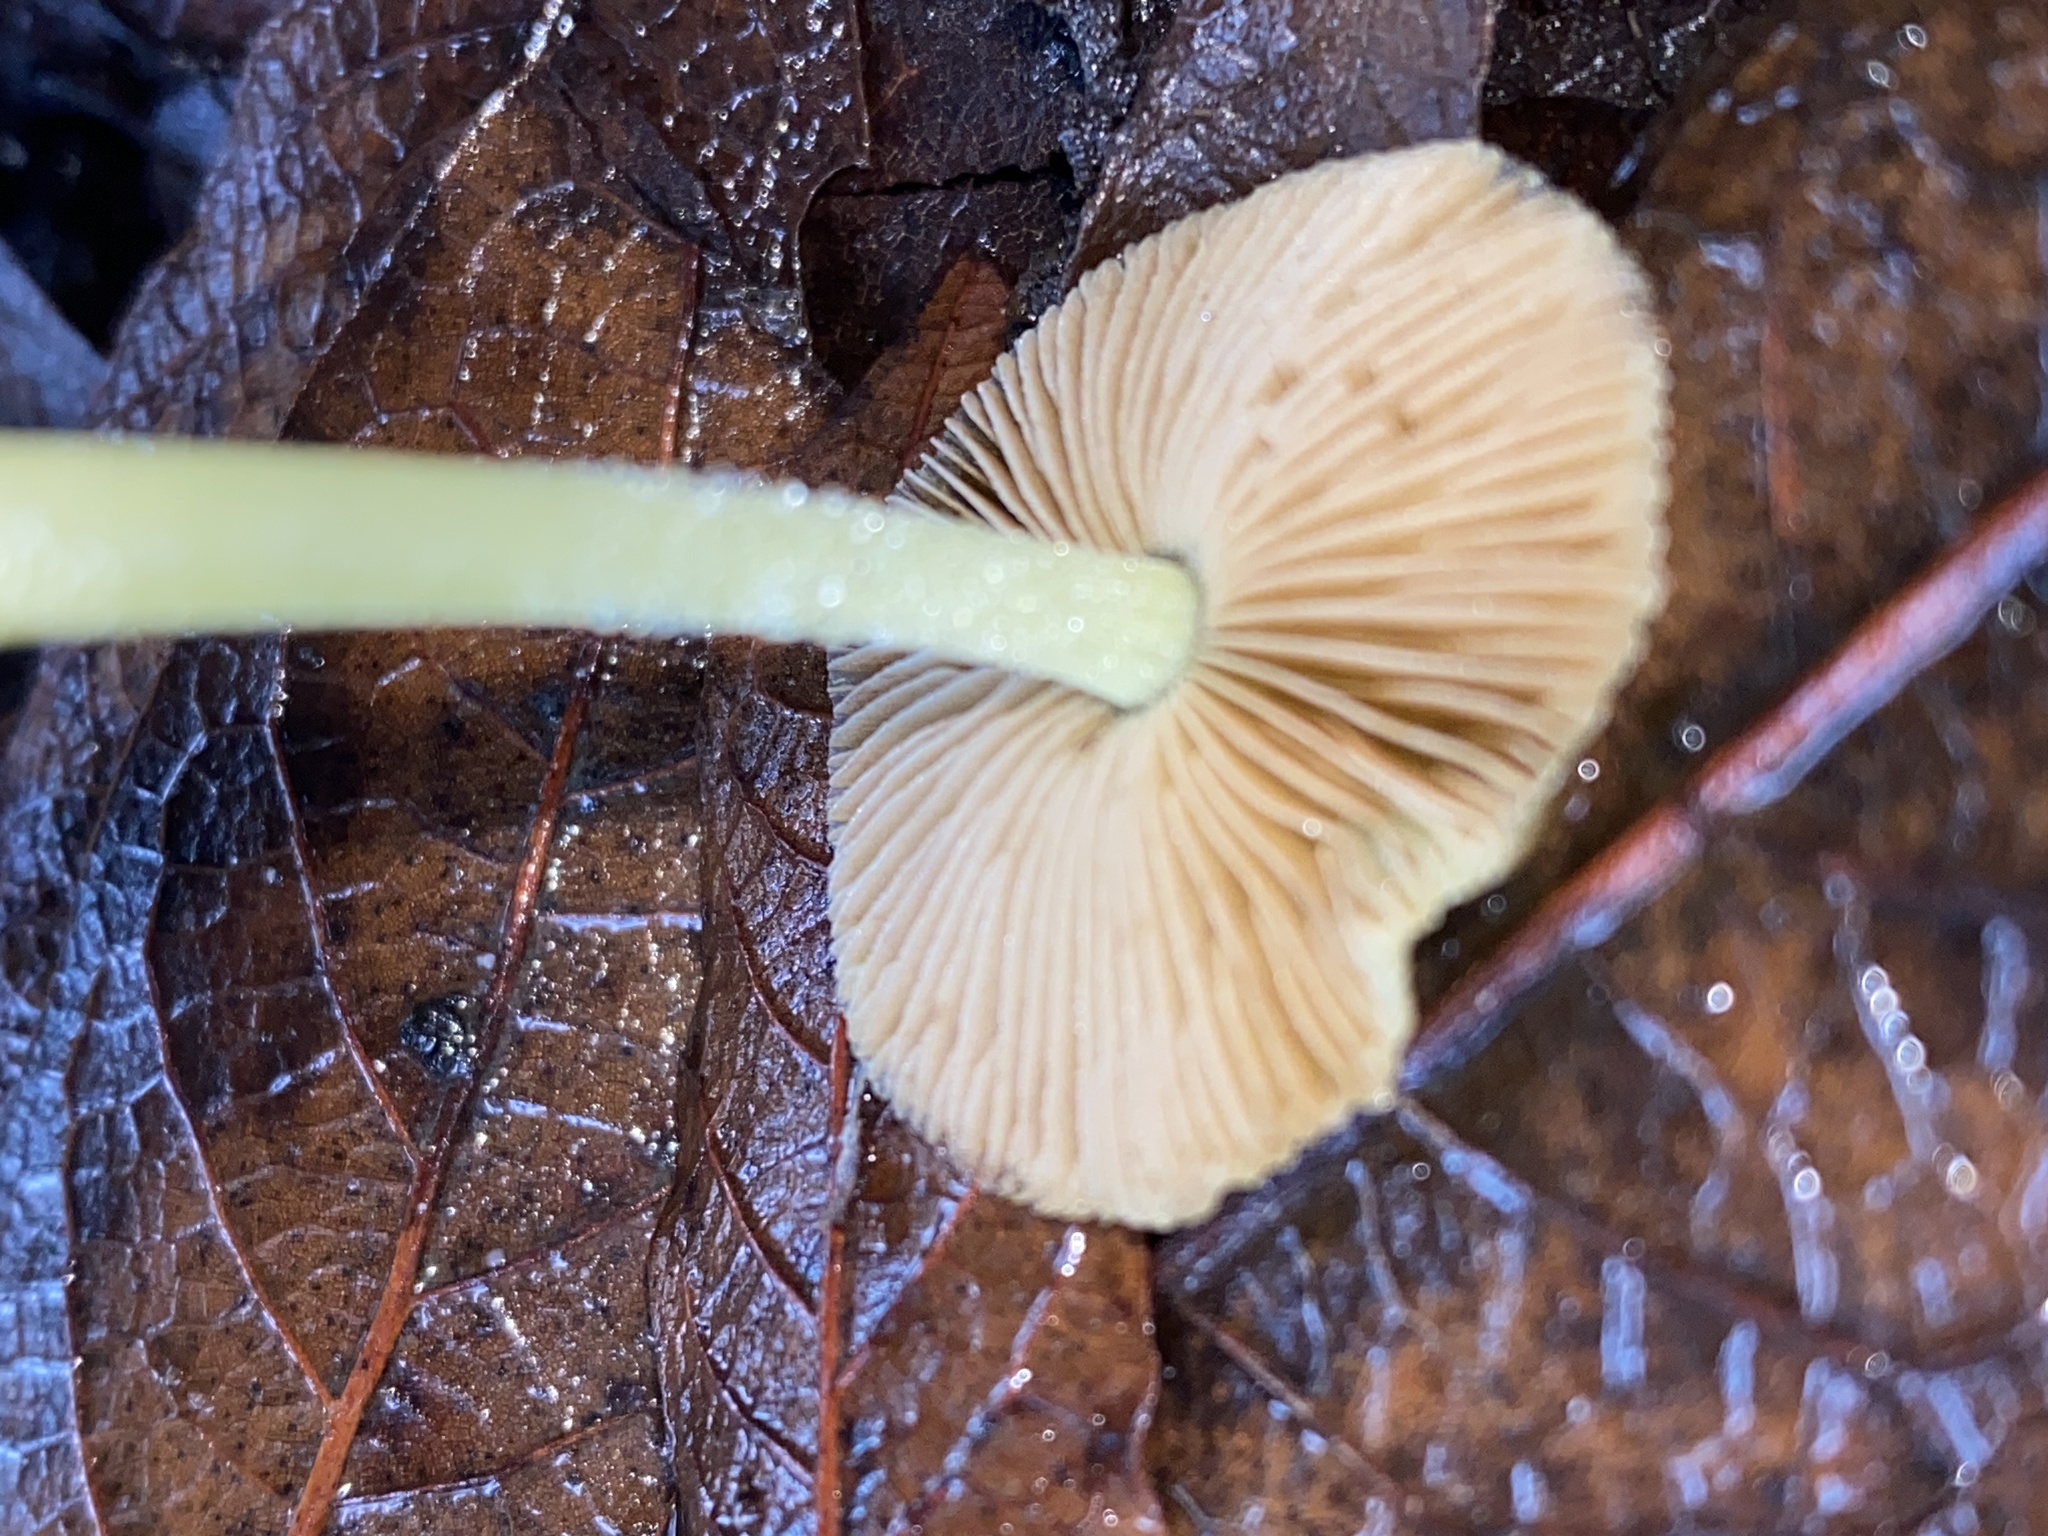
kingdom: Fungi
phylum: Basidiomycota
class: Agaricomycetes
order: Agaricales
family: Bolbitiaceae
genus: Bolbitius
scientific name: Bolbitius titubans
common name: Yellow fieldcap
